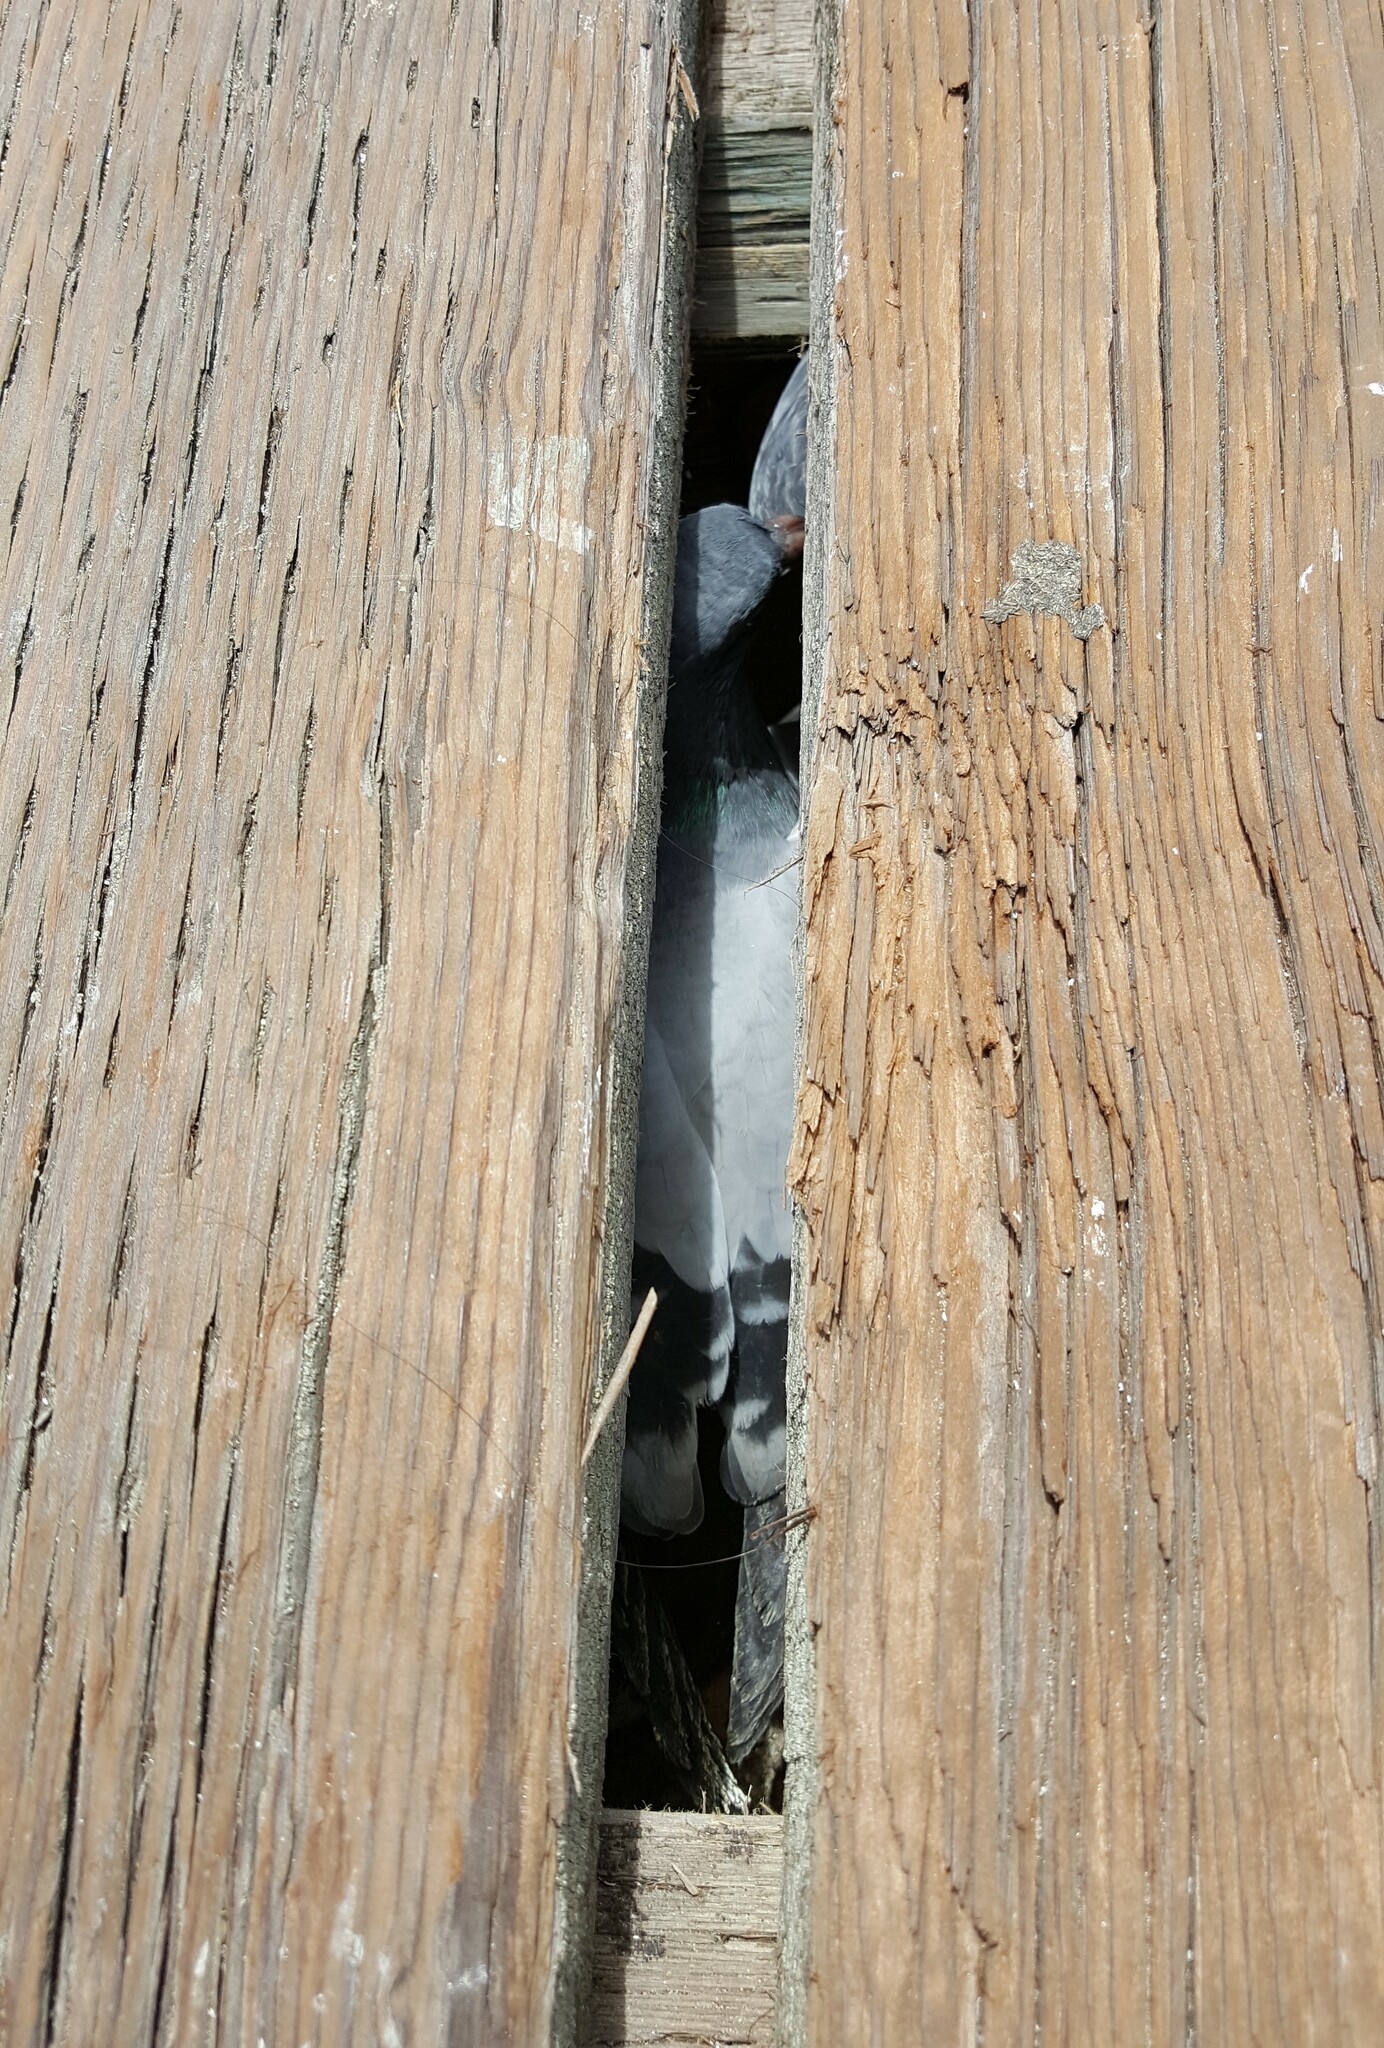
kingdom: Animalia
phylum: Chordata
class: Aves
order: Columbiformes
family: Columbidae
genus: Columba
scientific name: Columba livia
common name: Rock pigeon
